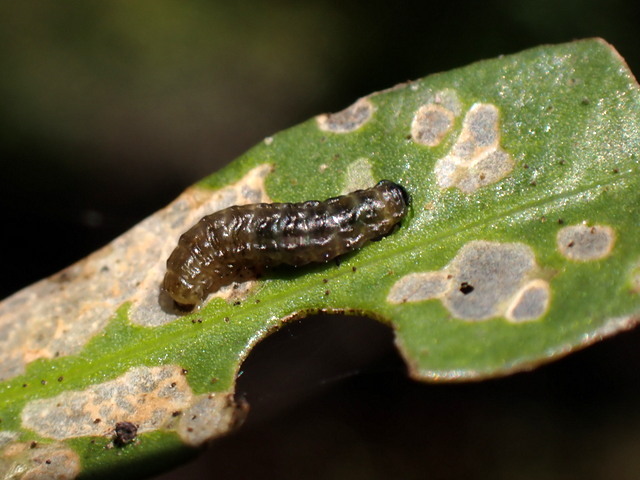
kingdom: Animalia
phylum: Arthropoda
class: Insecta
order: Coleoptera
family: Chrysomelidae
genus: Agasicles
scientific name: Agasicles hygrophila
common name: Alligatorweed flea beetle
